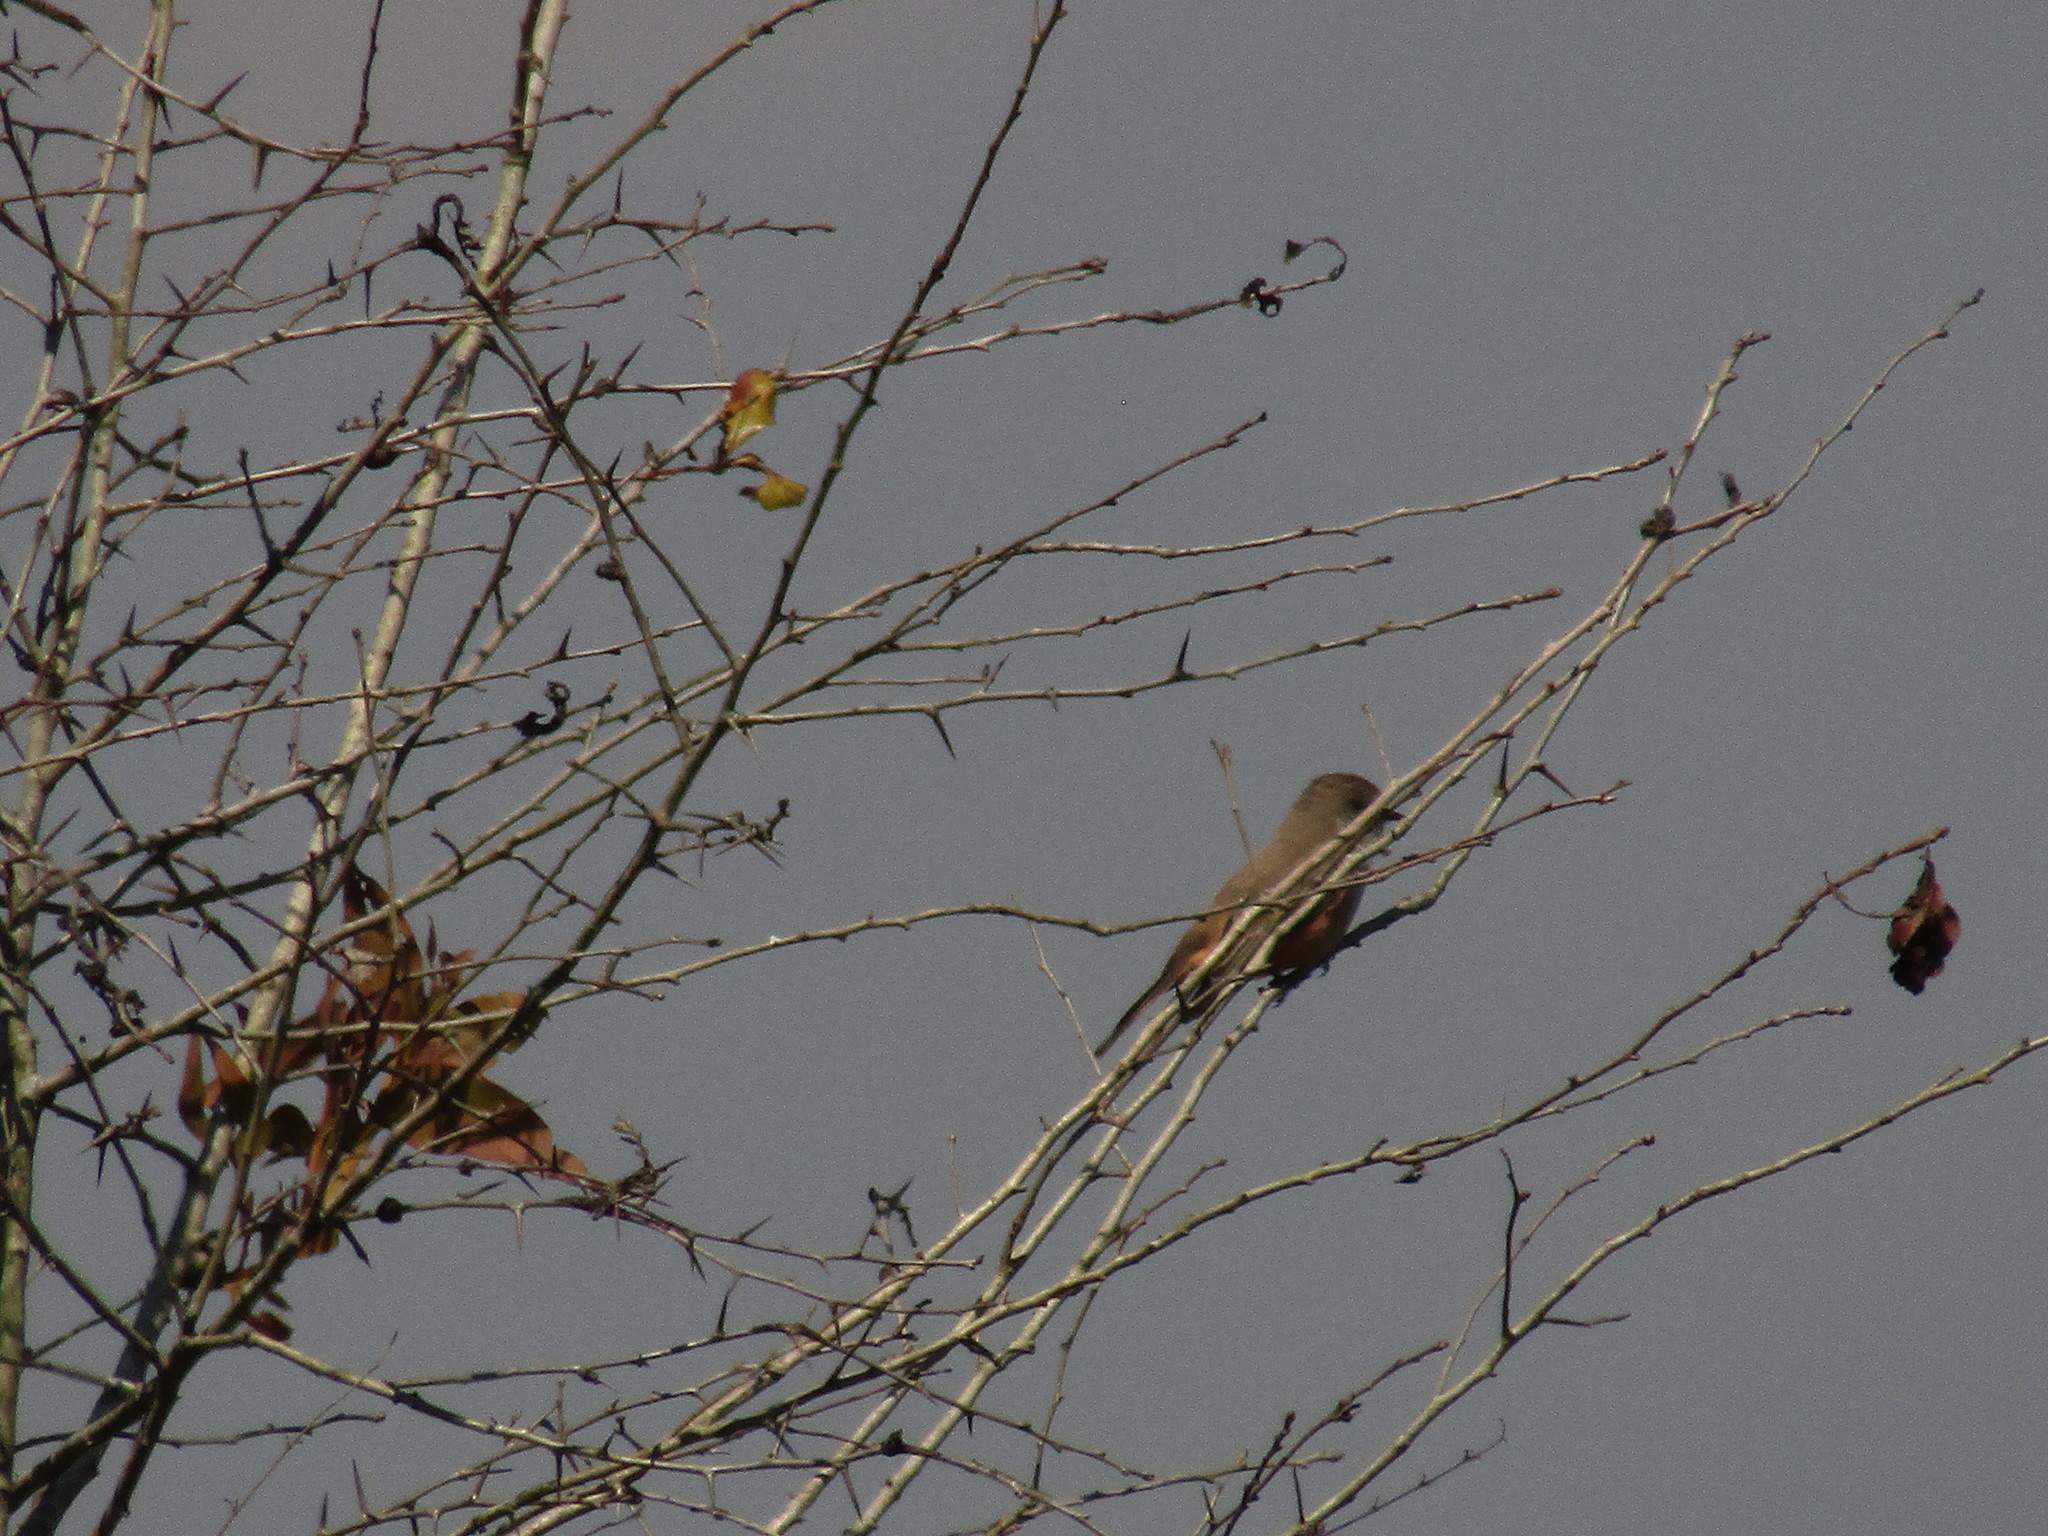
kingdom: Animalia
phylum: Chordata
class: Aves
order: Passeriformes
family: Tyrannidae
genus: Pyrocephalus
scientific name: Pyrocephalus rubinus
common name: Vermilion flycatcher
